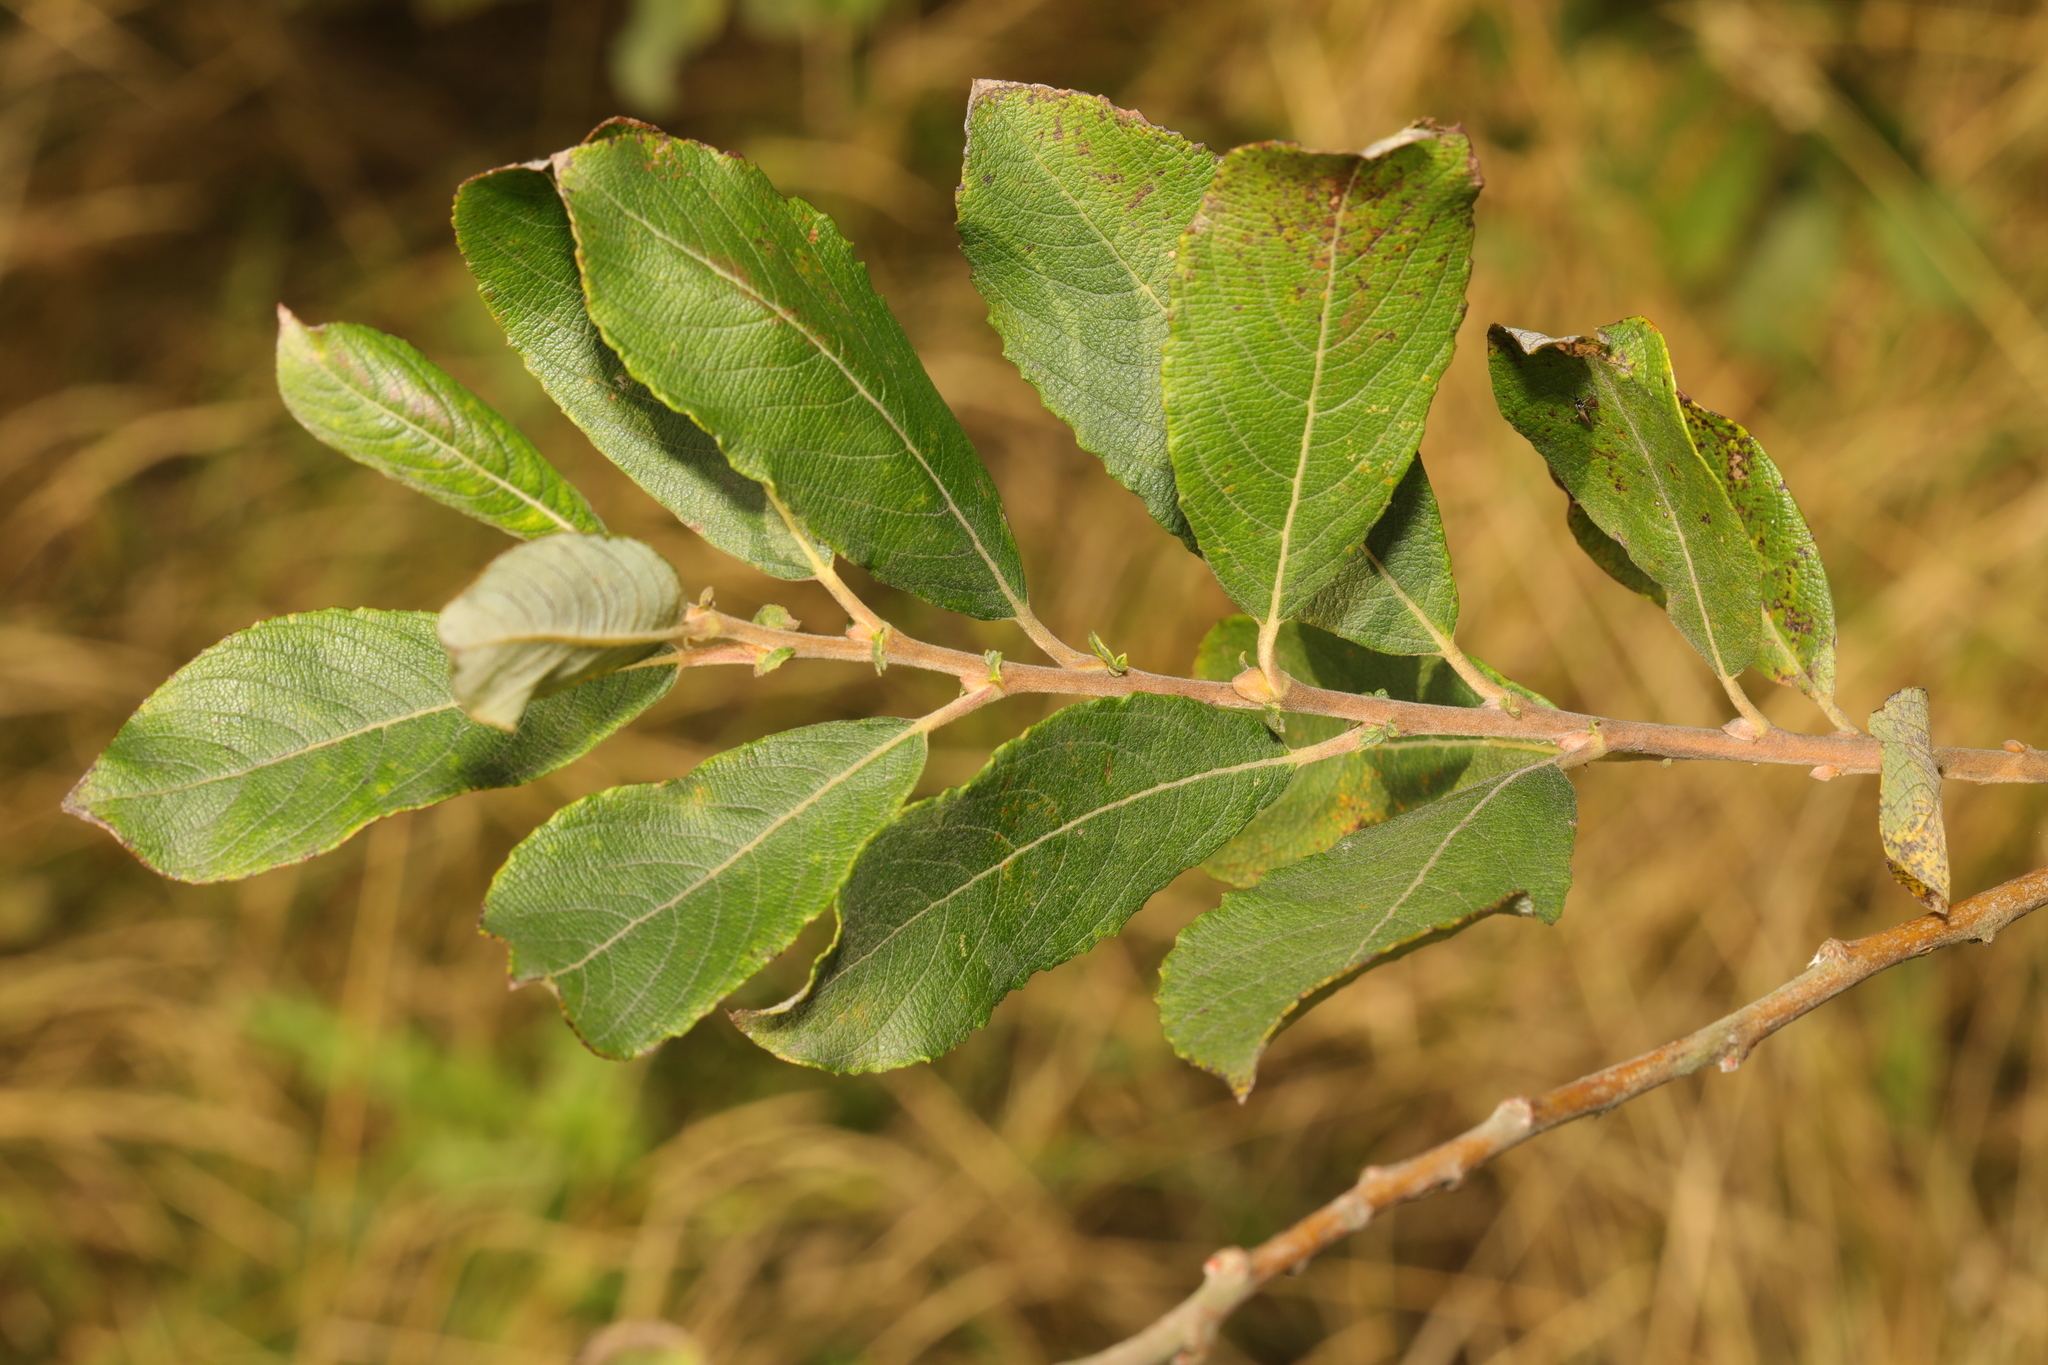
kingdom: Plantae
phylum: Tracheophyta
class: Magnoliopsida
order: Malpighiales
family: Salicaceae
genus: Salix
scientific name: Salix cinerea
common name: Common sallow
